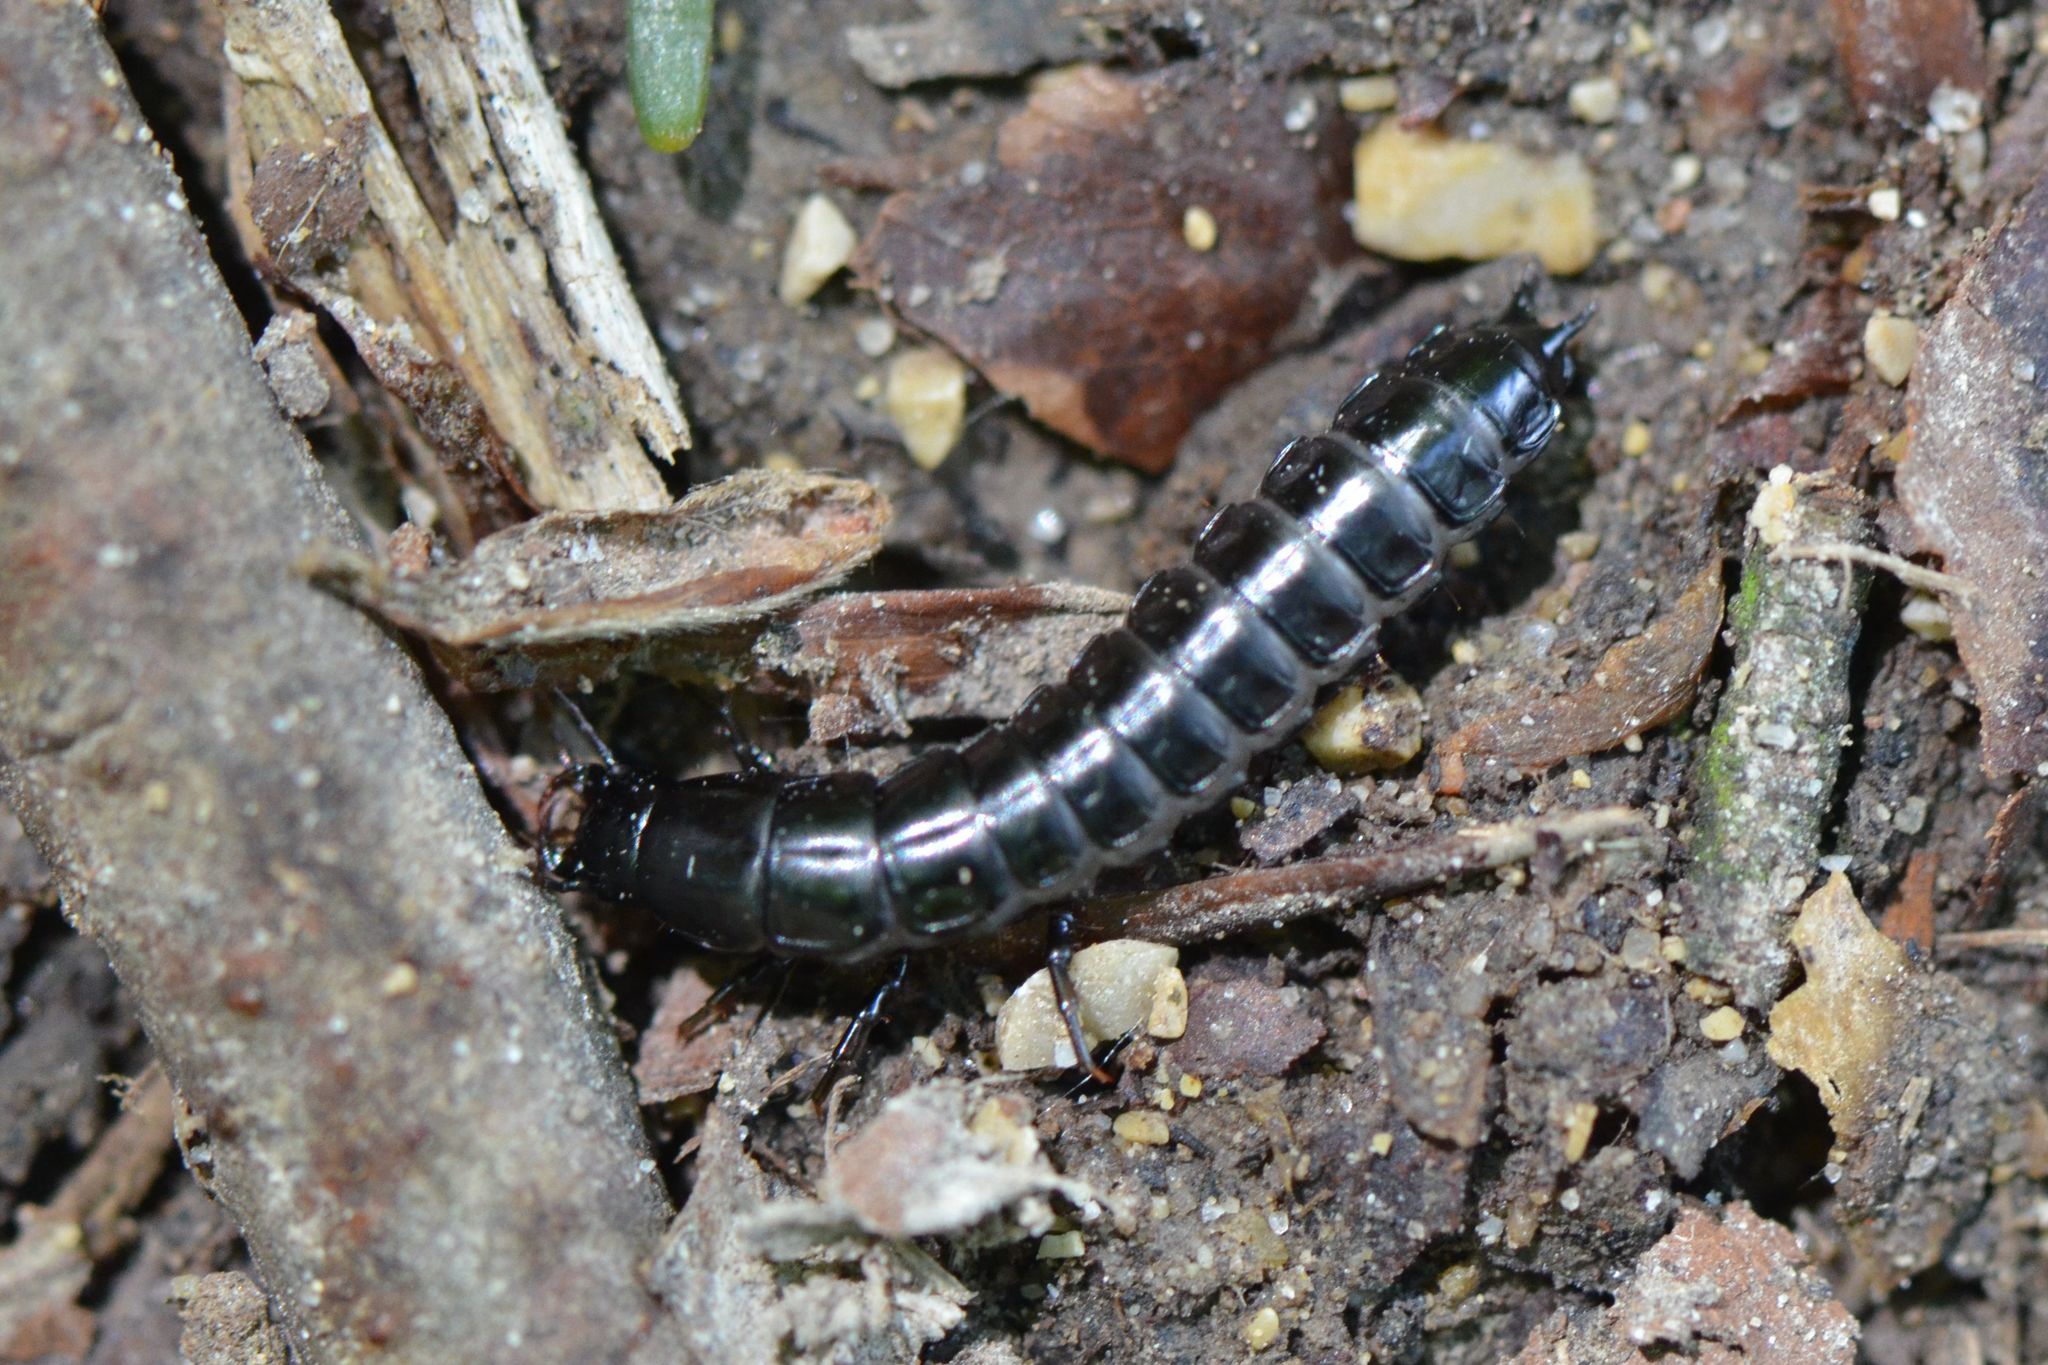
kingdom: Animalia
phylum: Arthropoda
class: Insecta
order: Coleoptera
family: Carabidae
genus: Carabus
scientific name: Carabus
